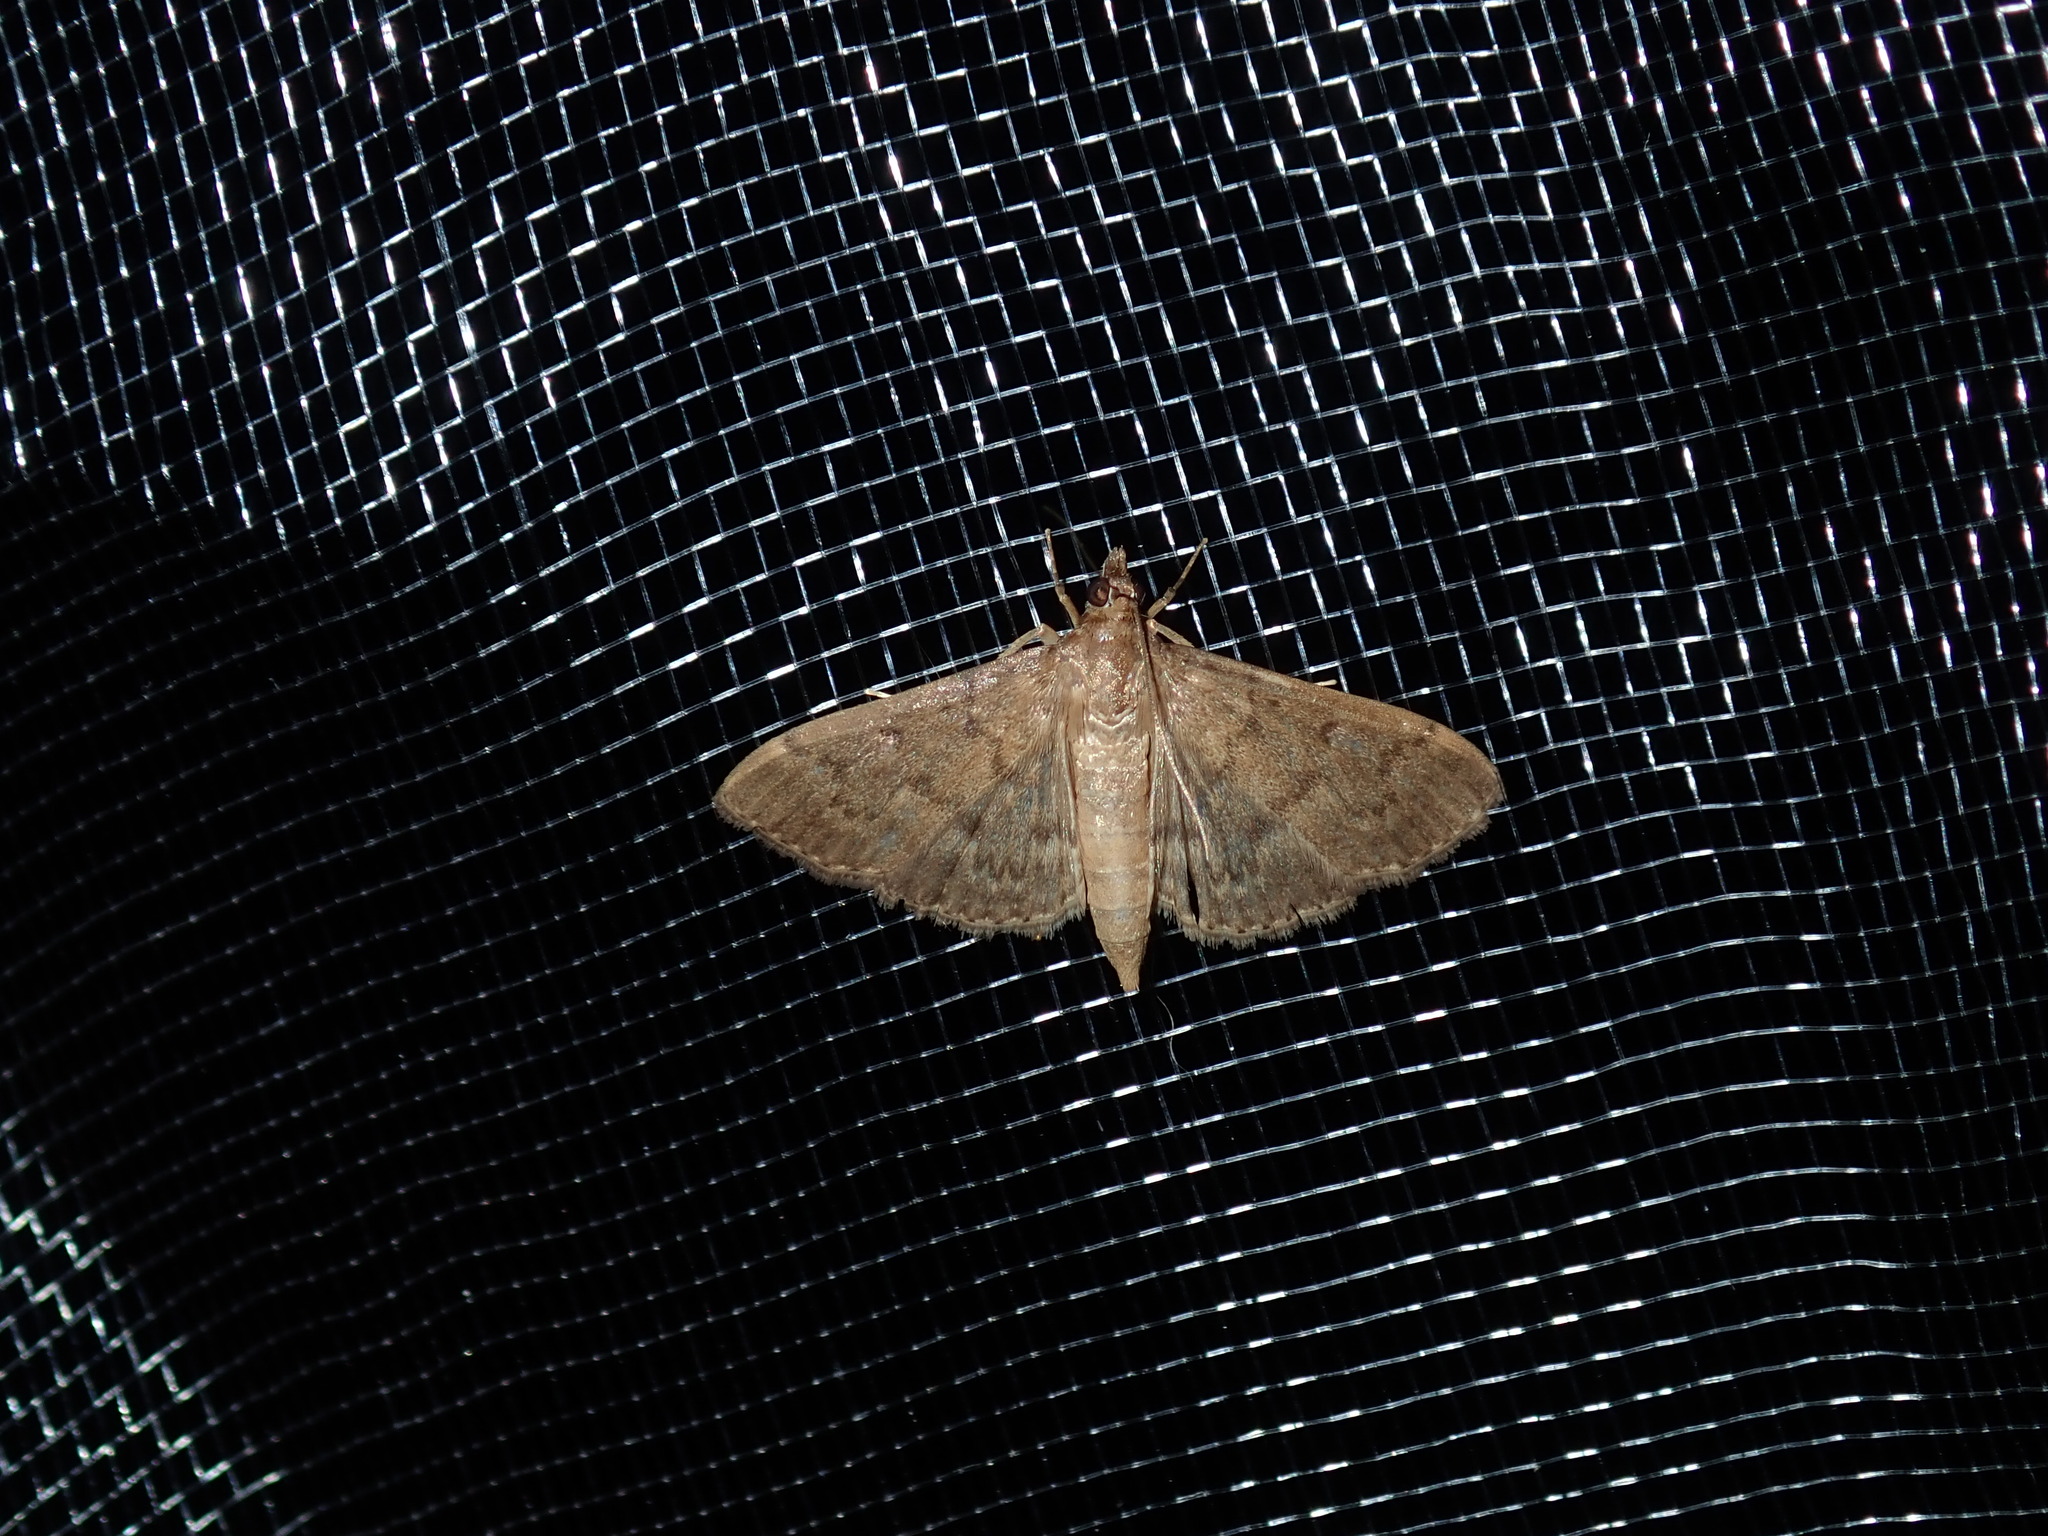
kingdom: Animalia
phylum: Arthropoda
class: Insecta
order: Lepidoptera
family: Crambidae
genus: Herpetogramma
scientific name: Herpetogramma licarsisalis
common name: Grass webworm
